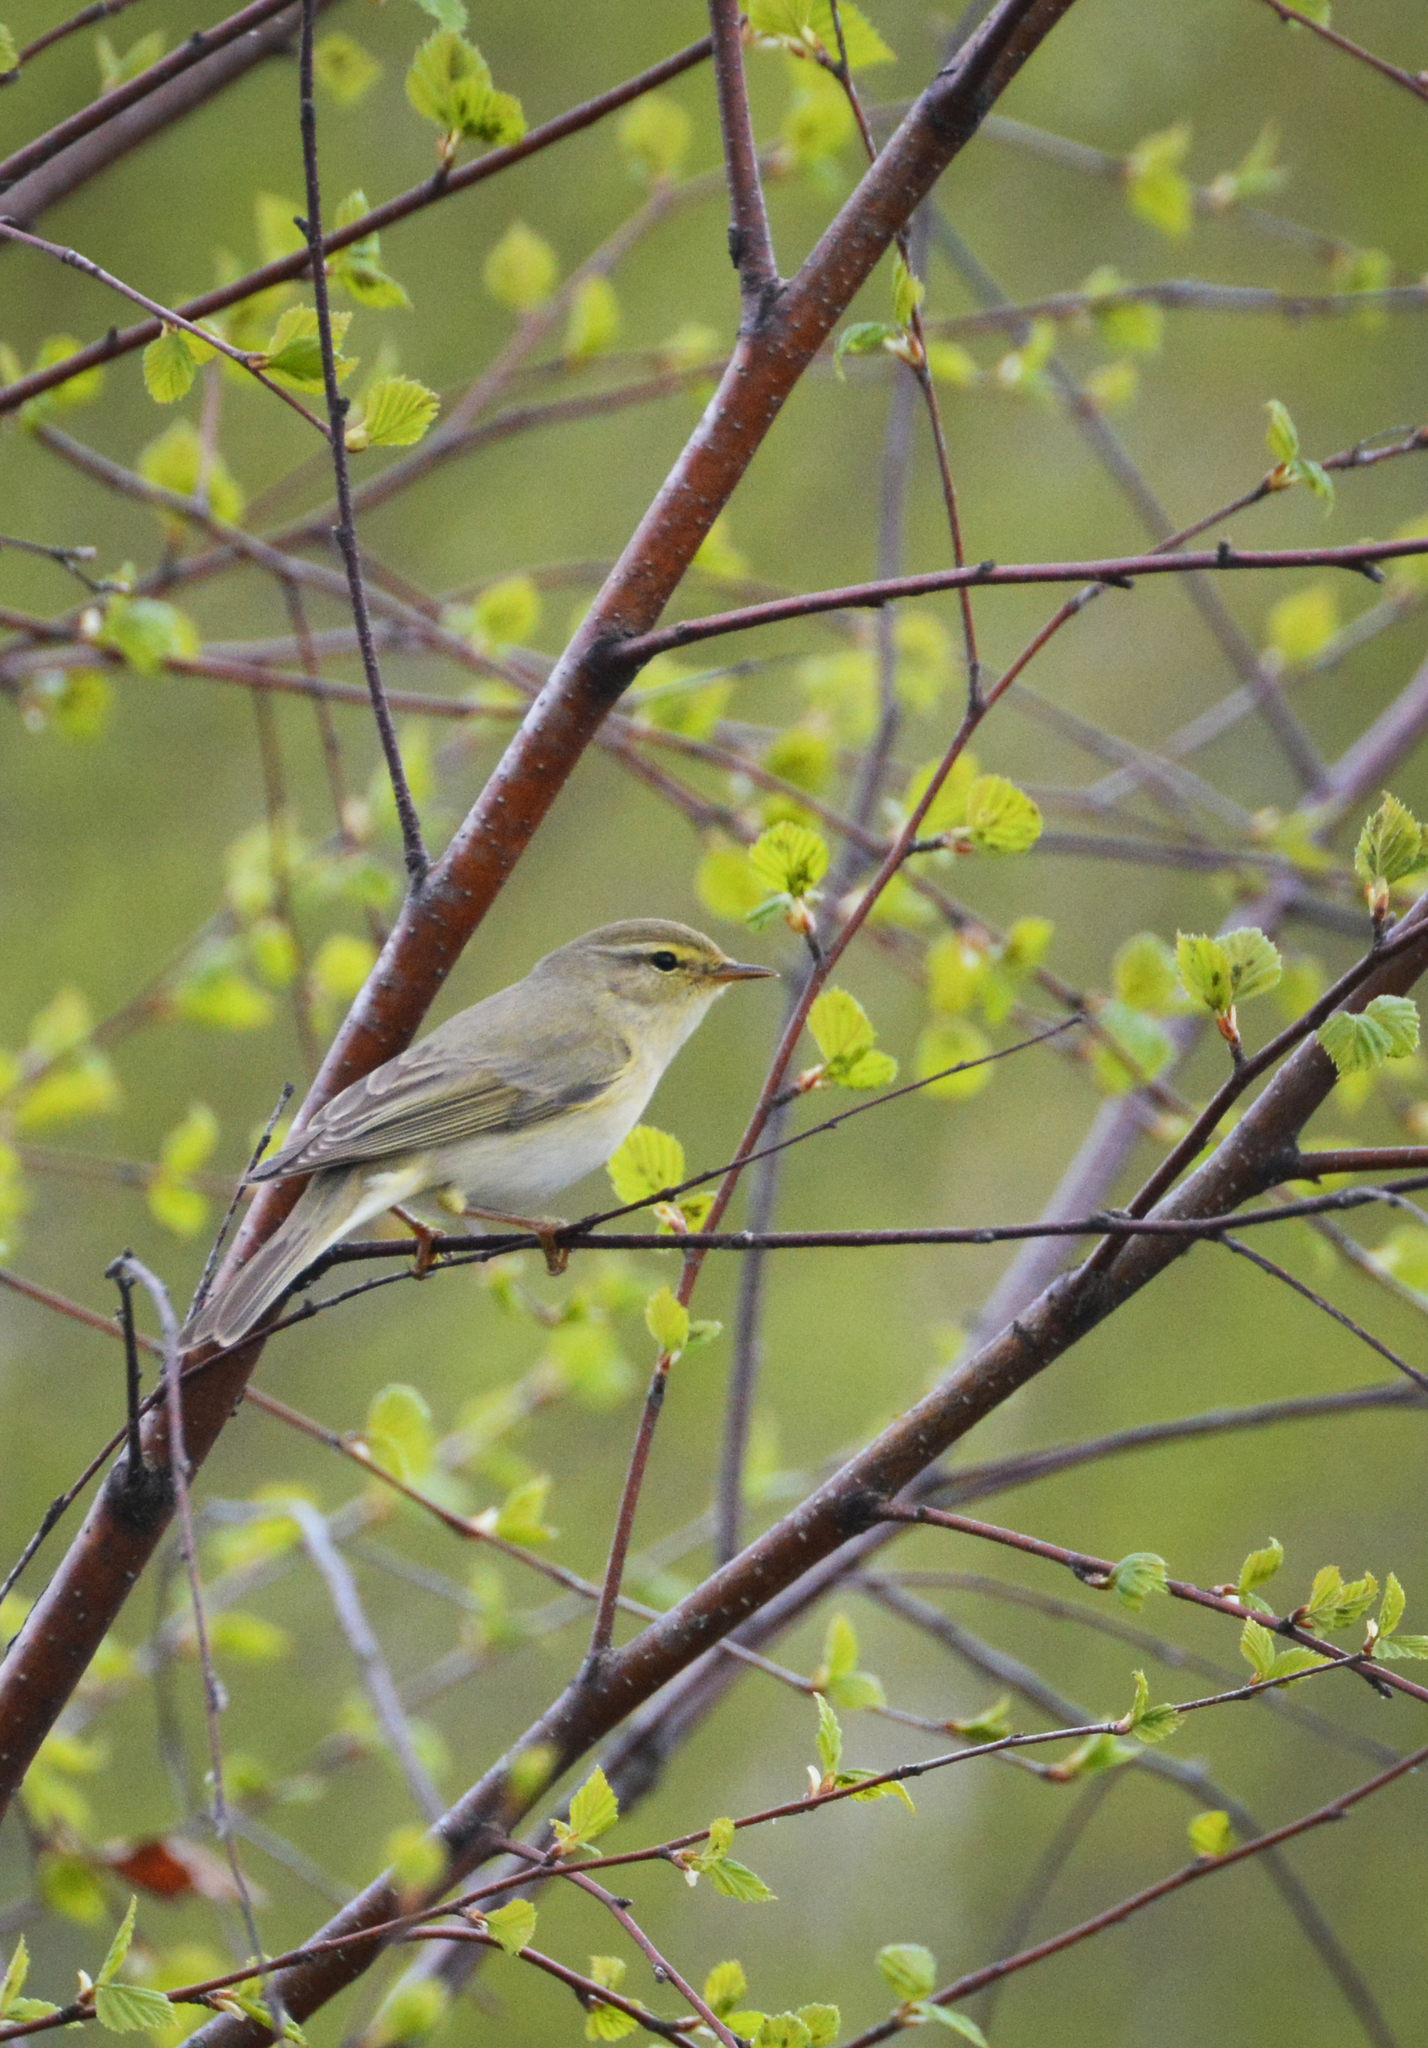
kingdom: Animalia
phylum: Chordata
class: Aves
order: Passeriformes
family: Phylloscopidae
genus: Phylloscopus
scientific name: Phylloscopus trochilus
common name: Willow warbler
